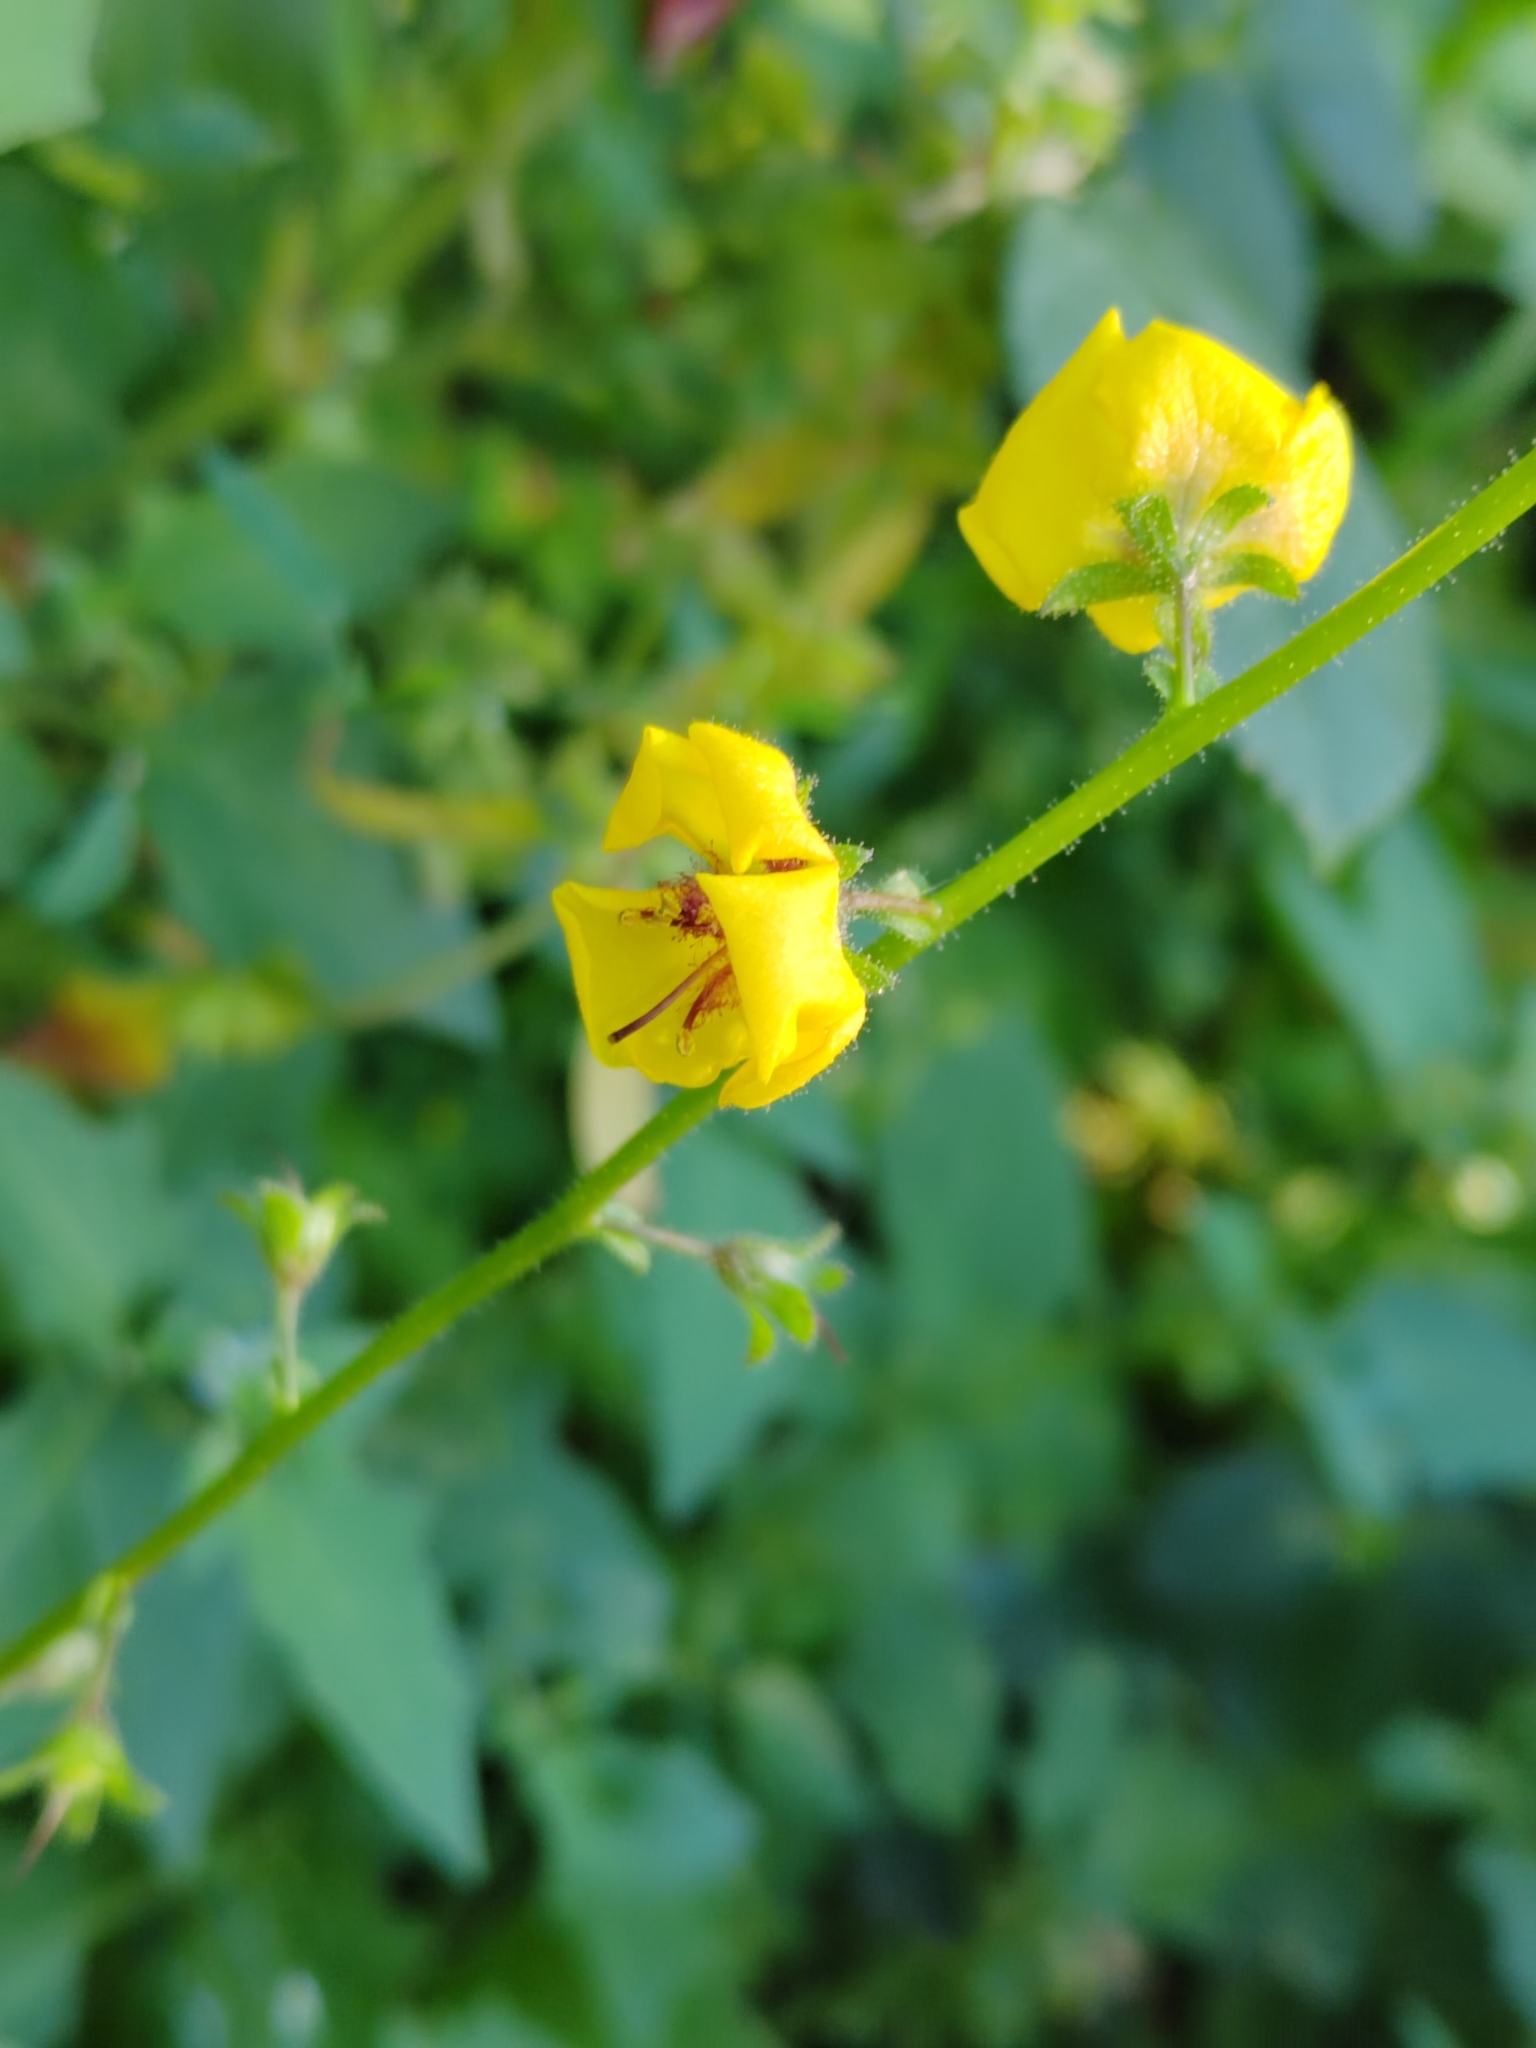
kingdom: Plantae
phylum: Tracheophyta
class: Magnoliopsida
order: Lamiales
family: Scrophulariaceae
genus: Verbascum
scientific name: Verbascum blattaria
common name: Moth mullein
